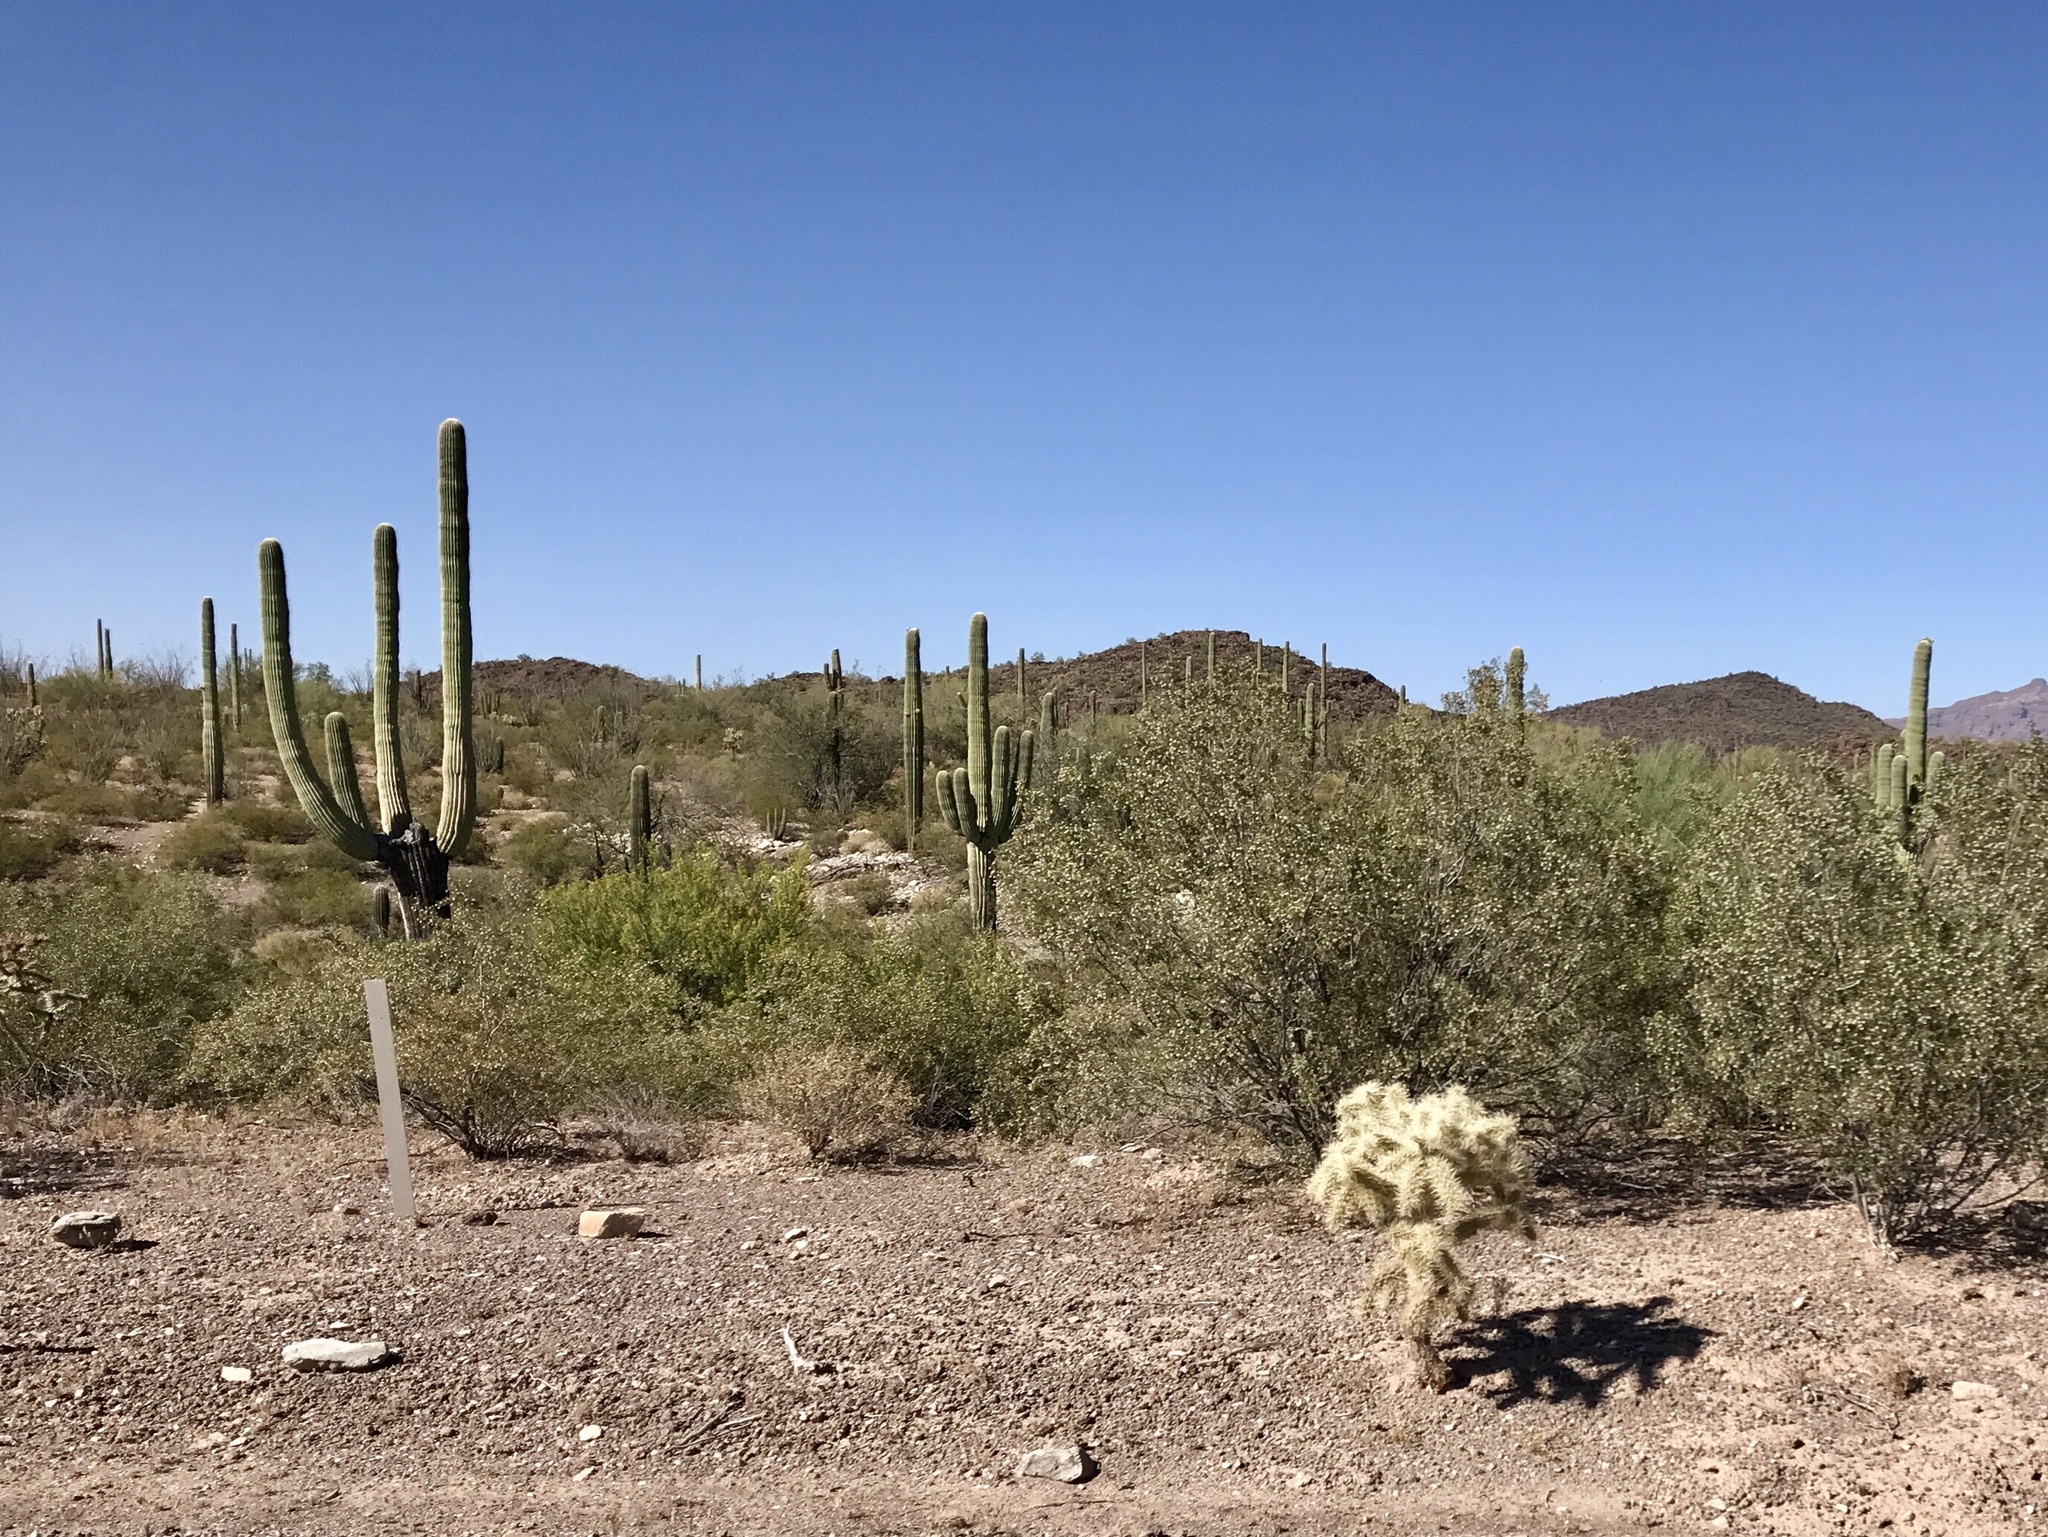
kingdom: Plantae
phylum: Tracheophyta
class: Magnoliopsida
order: Caryophyllales
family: Cactaceae
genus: Cylindropuntia
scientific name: Cylindropuntia fosbergii
